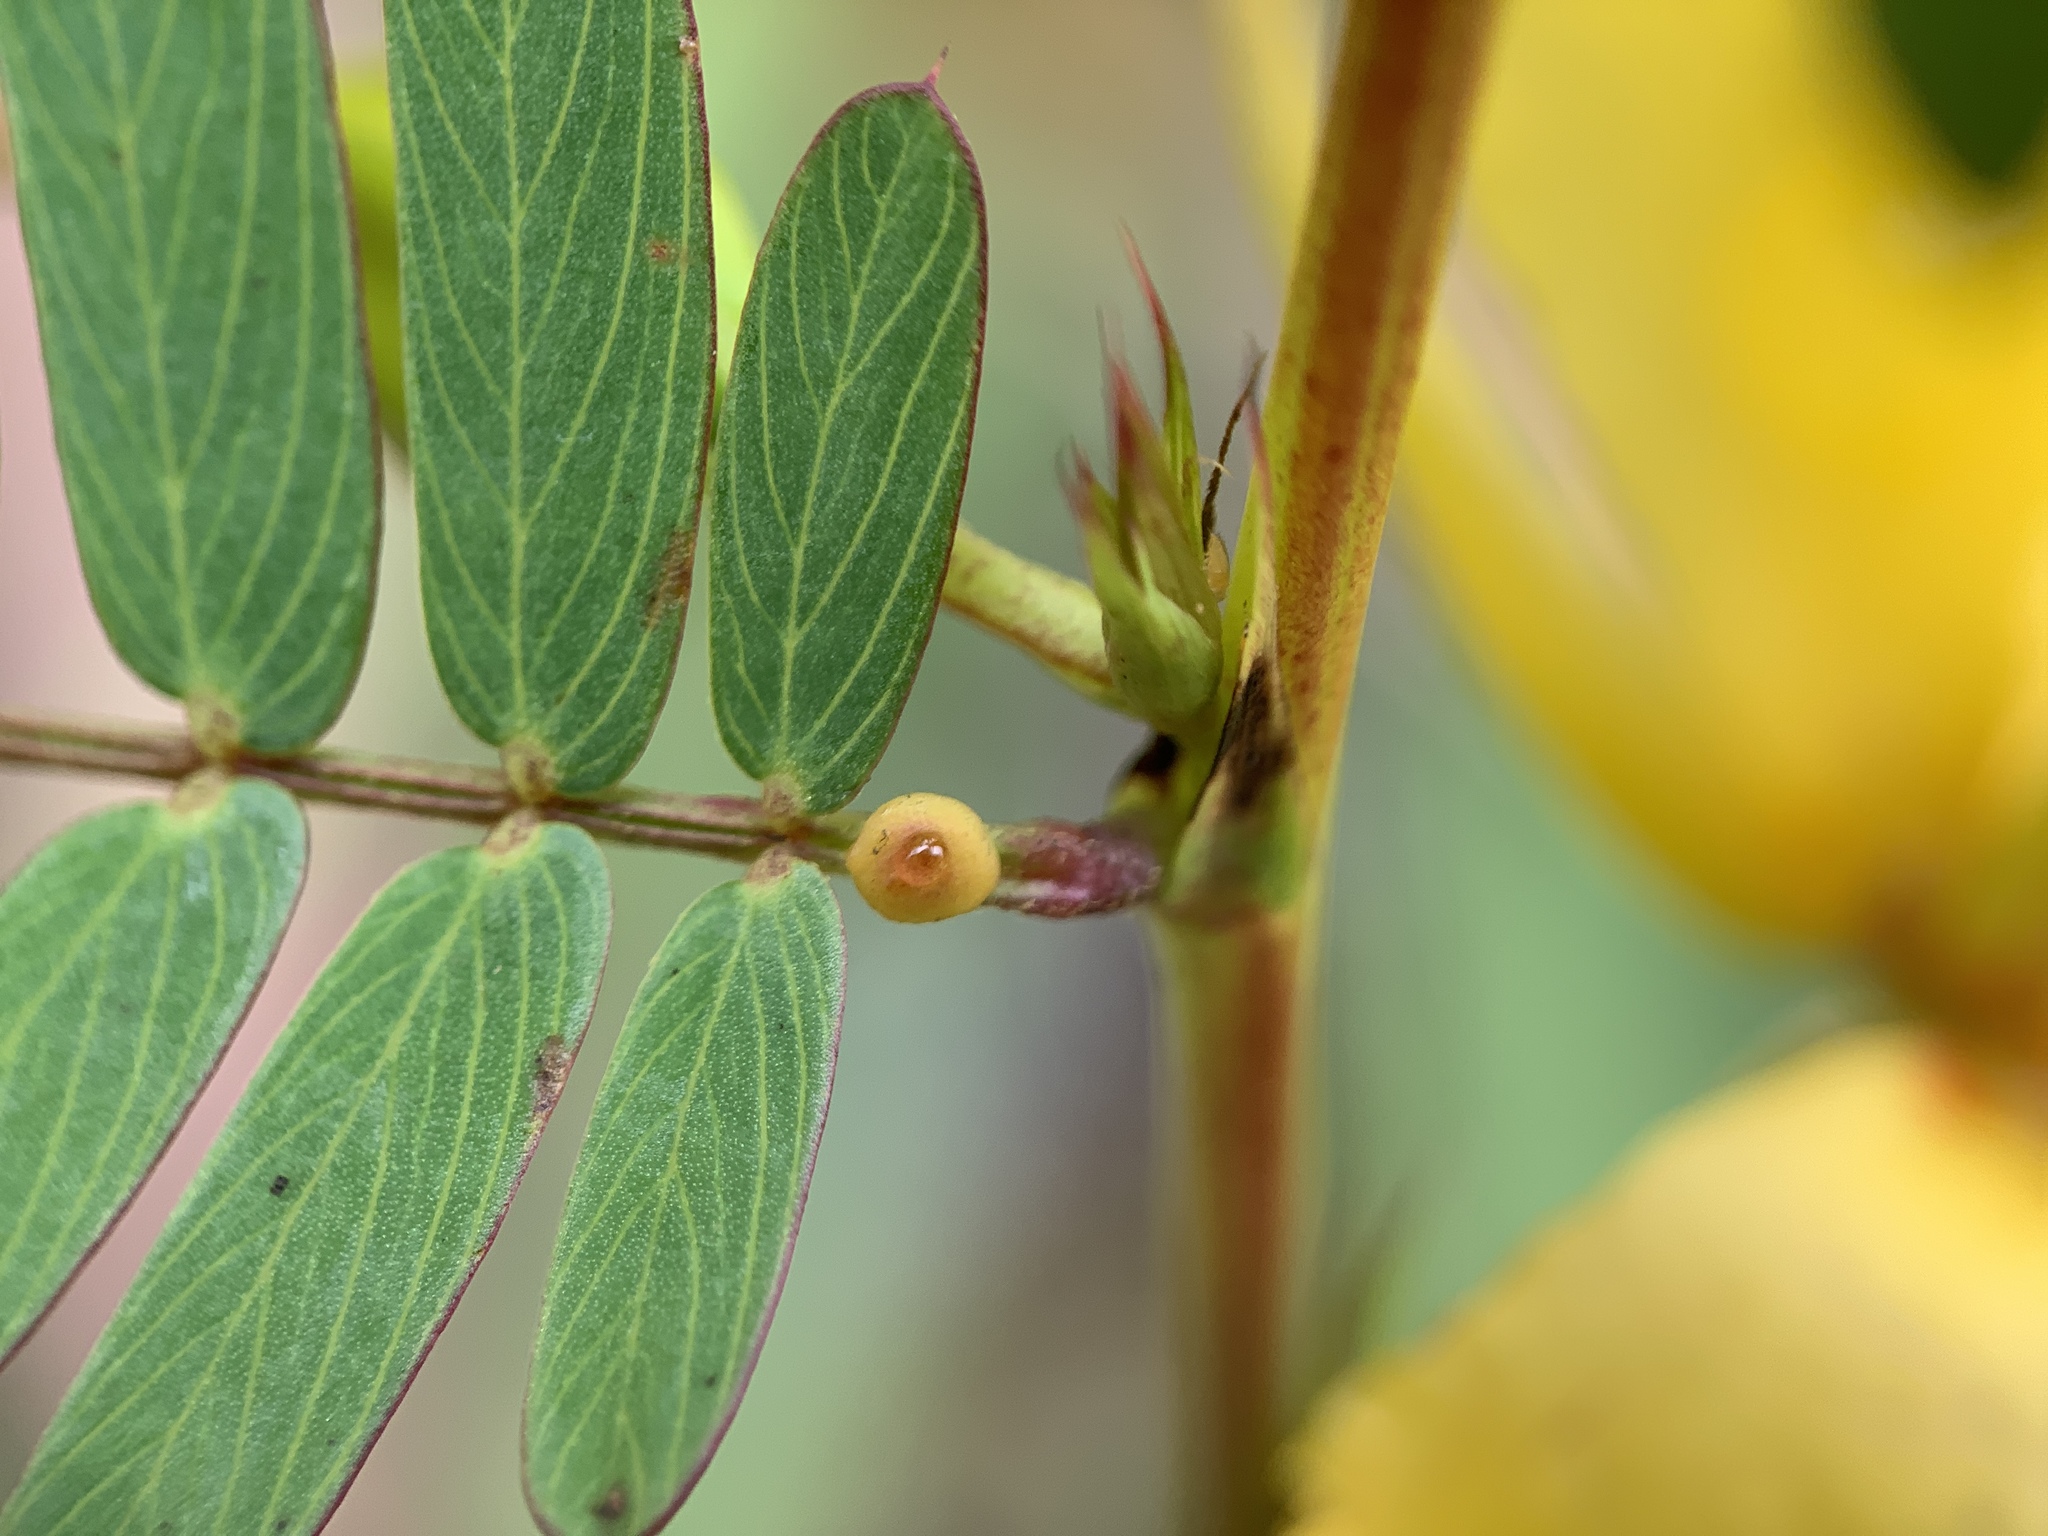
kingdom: Plantae
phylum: Tracheophyta
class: Magnoliopsida
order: Fabales
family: Fabaceae
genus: Chamaecrista
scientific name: Chamaecrista fasciculata
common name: Golden cassia
